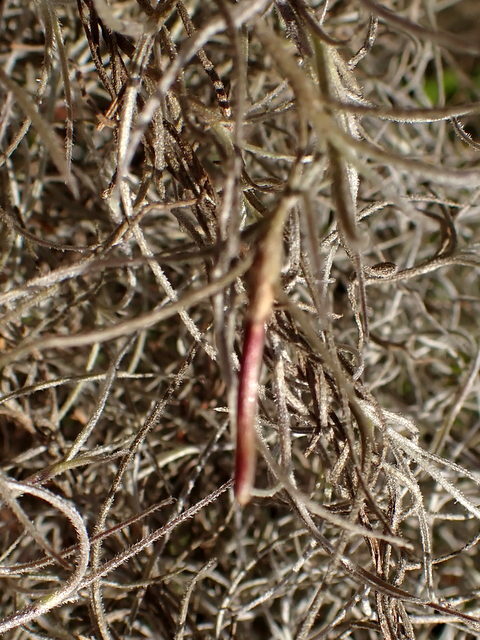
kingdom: Plantae
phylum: Tracheophyta
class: Liliopsida
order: Poales
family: Bromeliaceae
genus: Tillandsia
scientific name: Tillandsia usneoides
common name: Spanish moss
